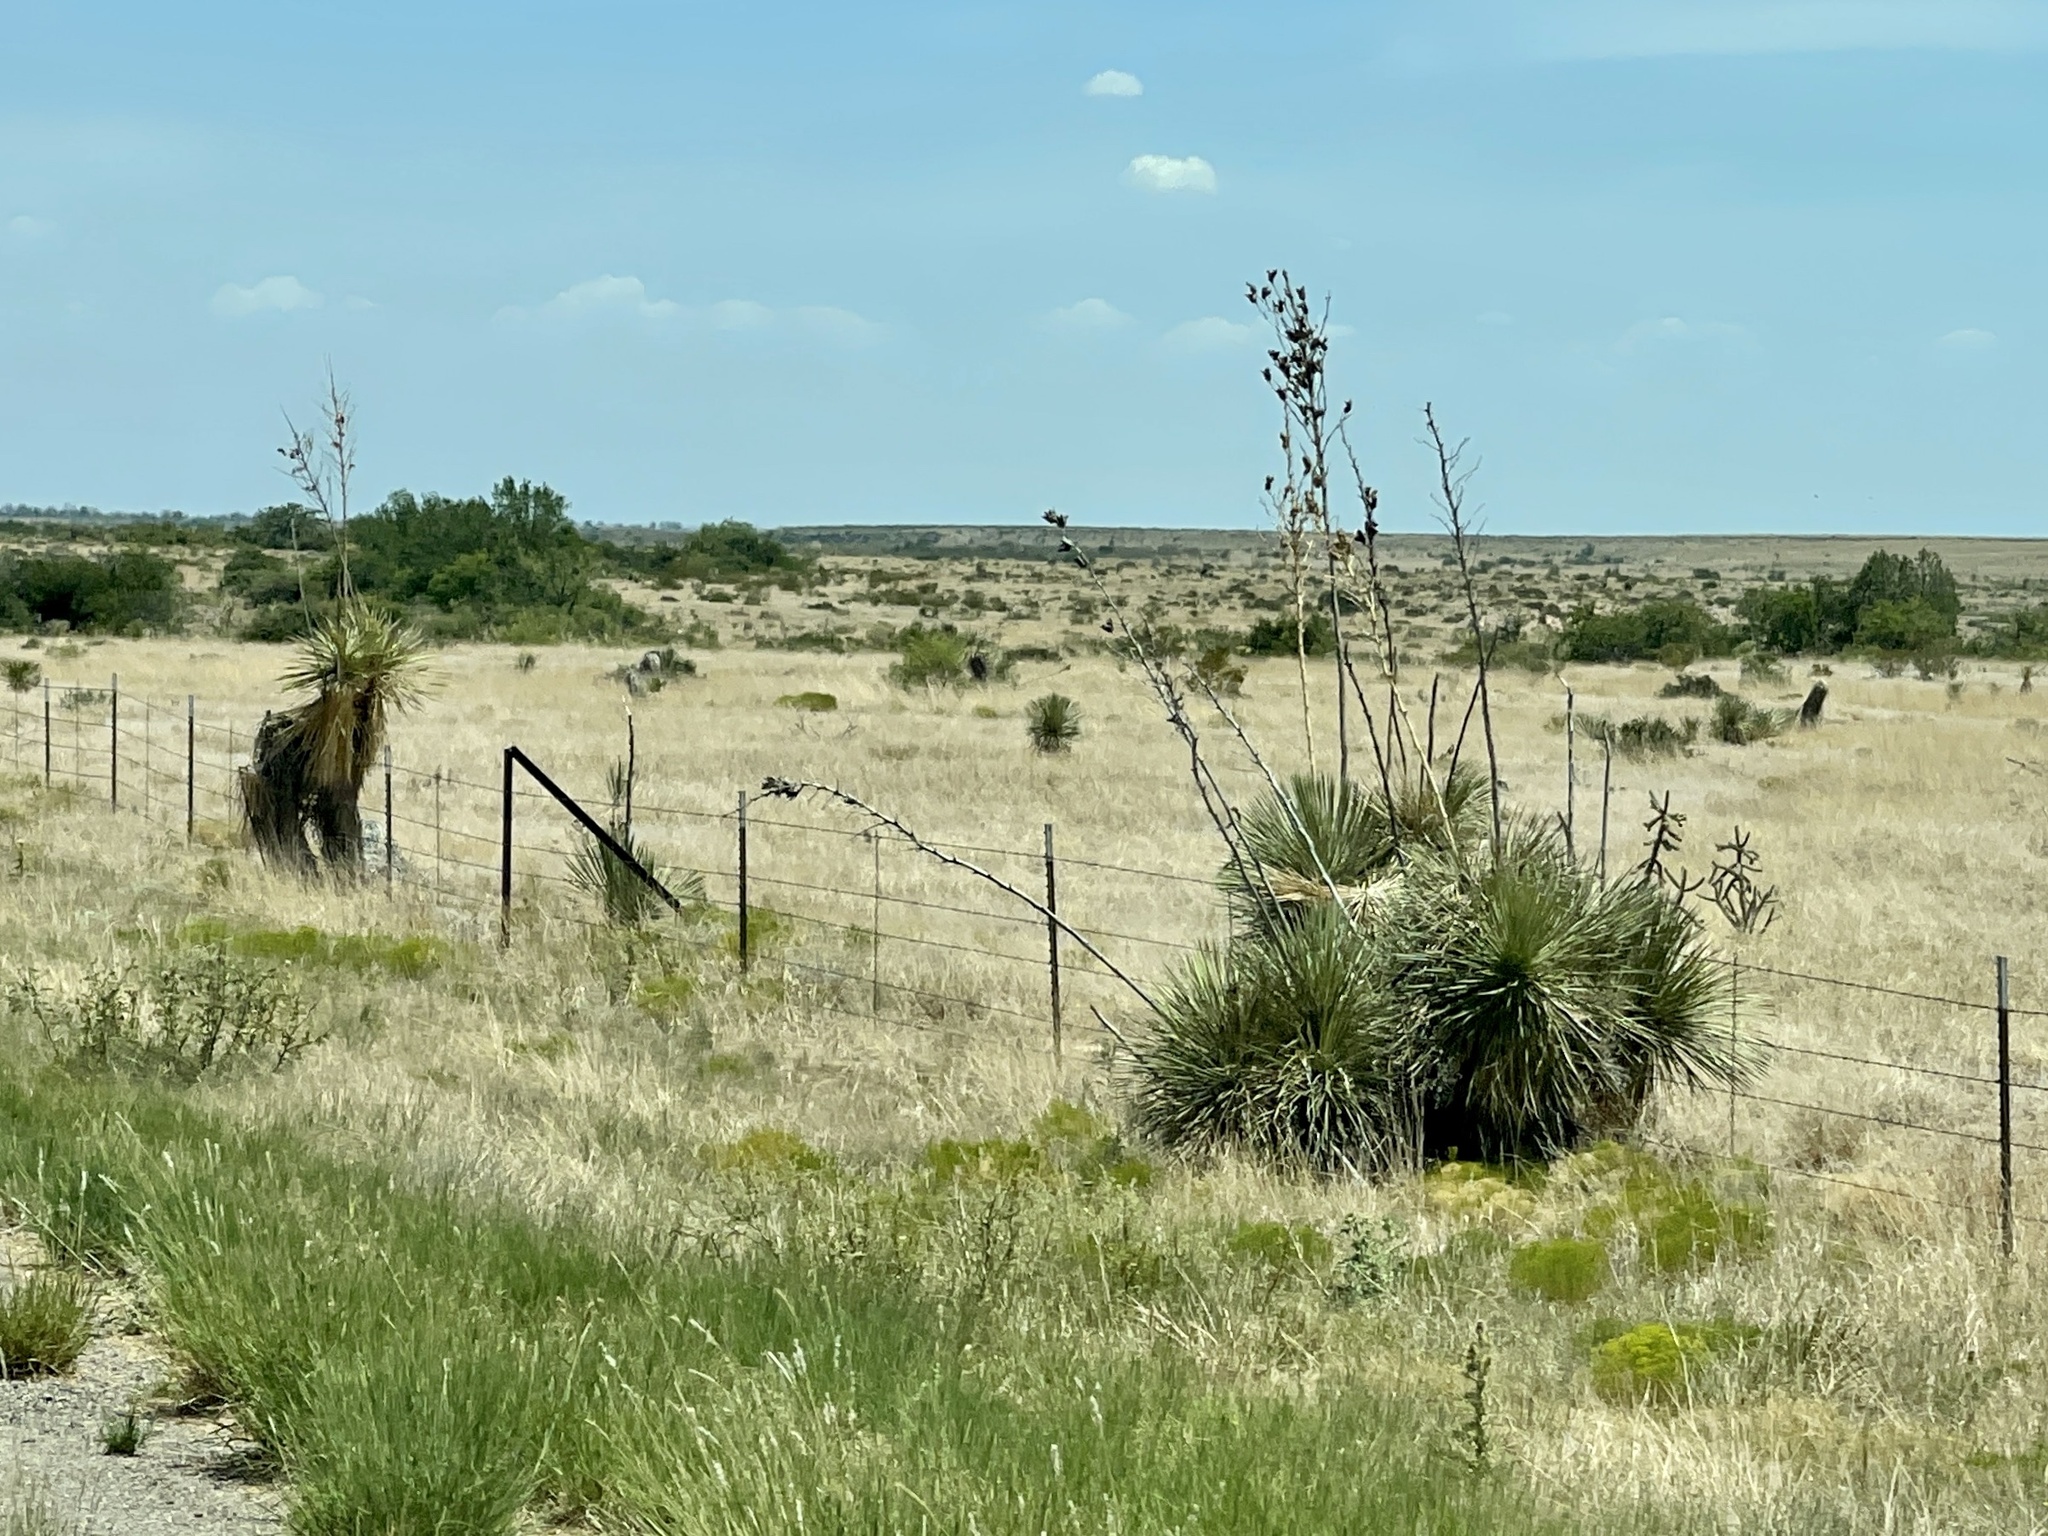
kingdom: Plantae
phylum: Tracheophyta
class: Liliopsida
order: Asparagales
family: Asparagaceae
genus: Yucca
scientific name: Yucca elata
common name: Palmella
